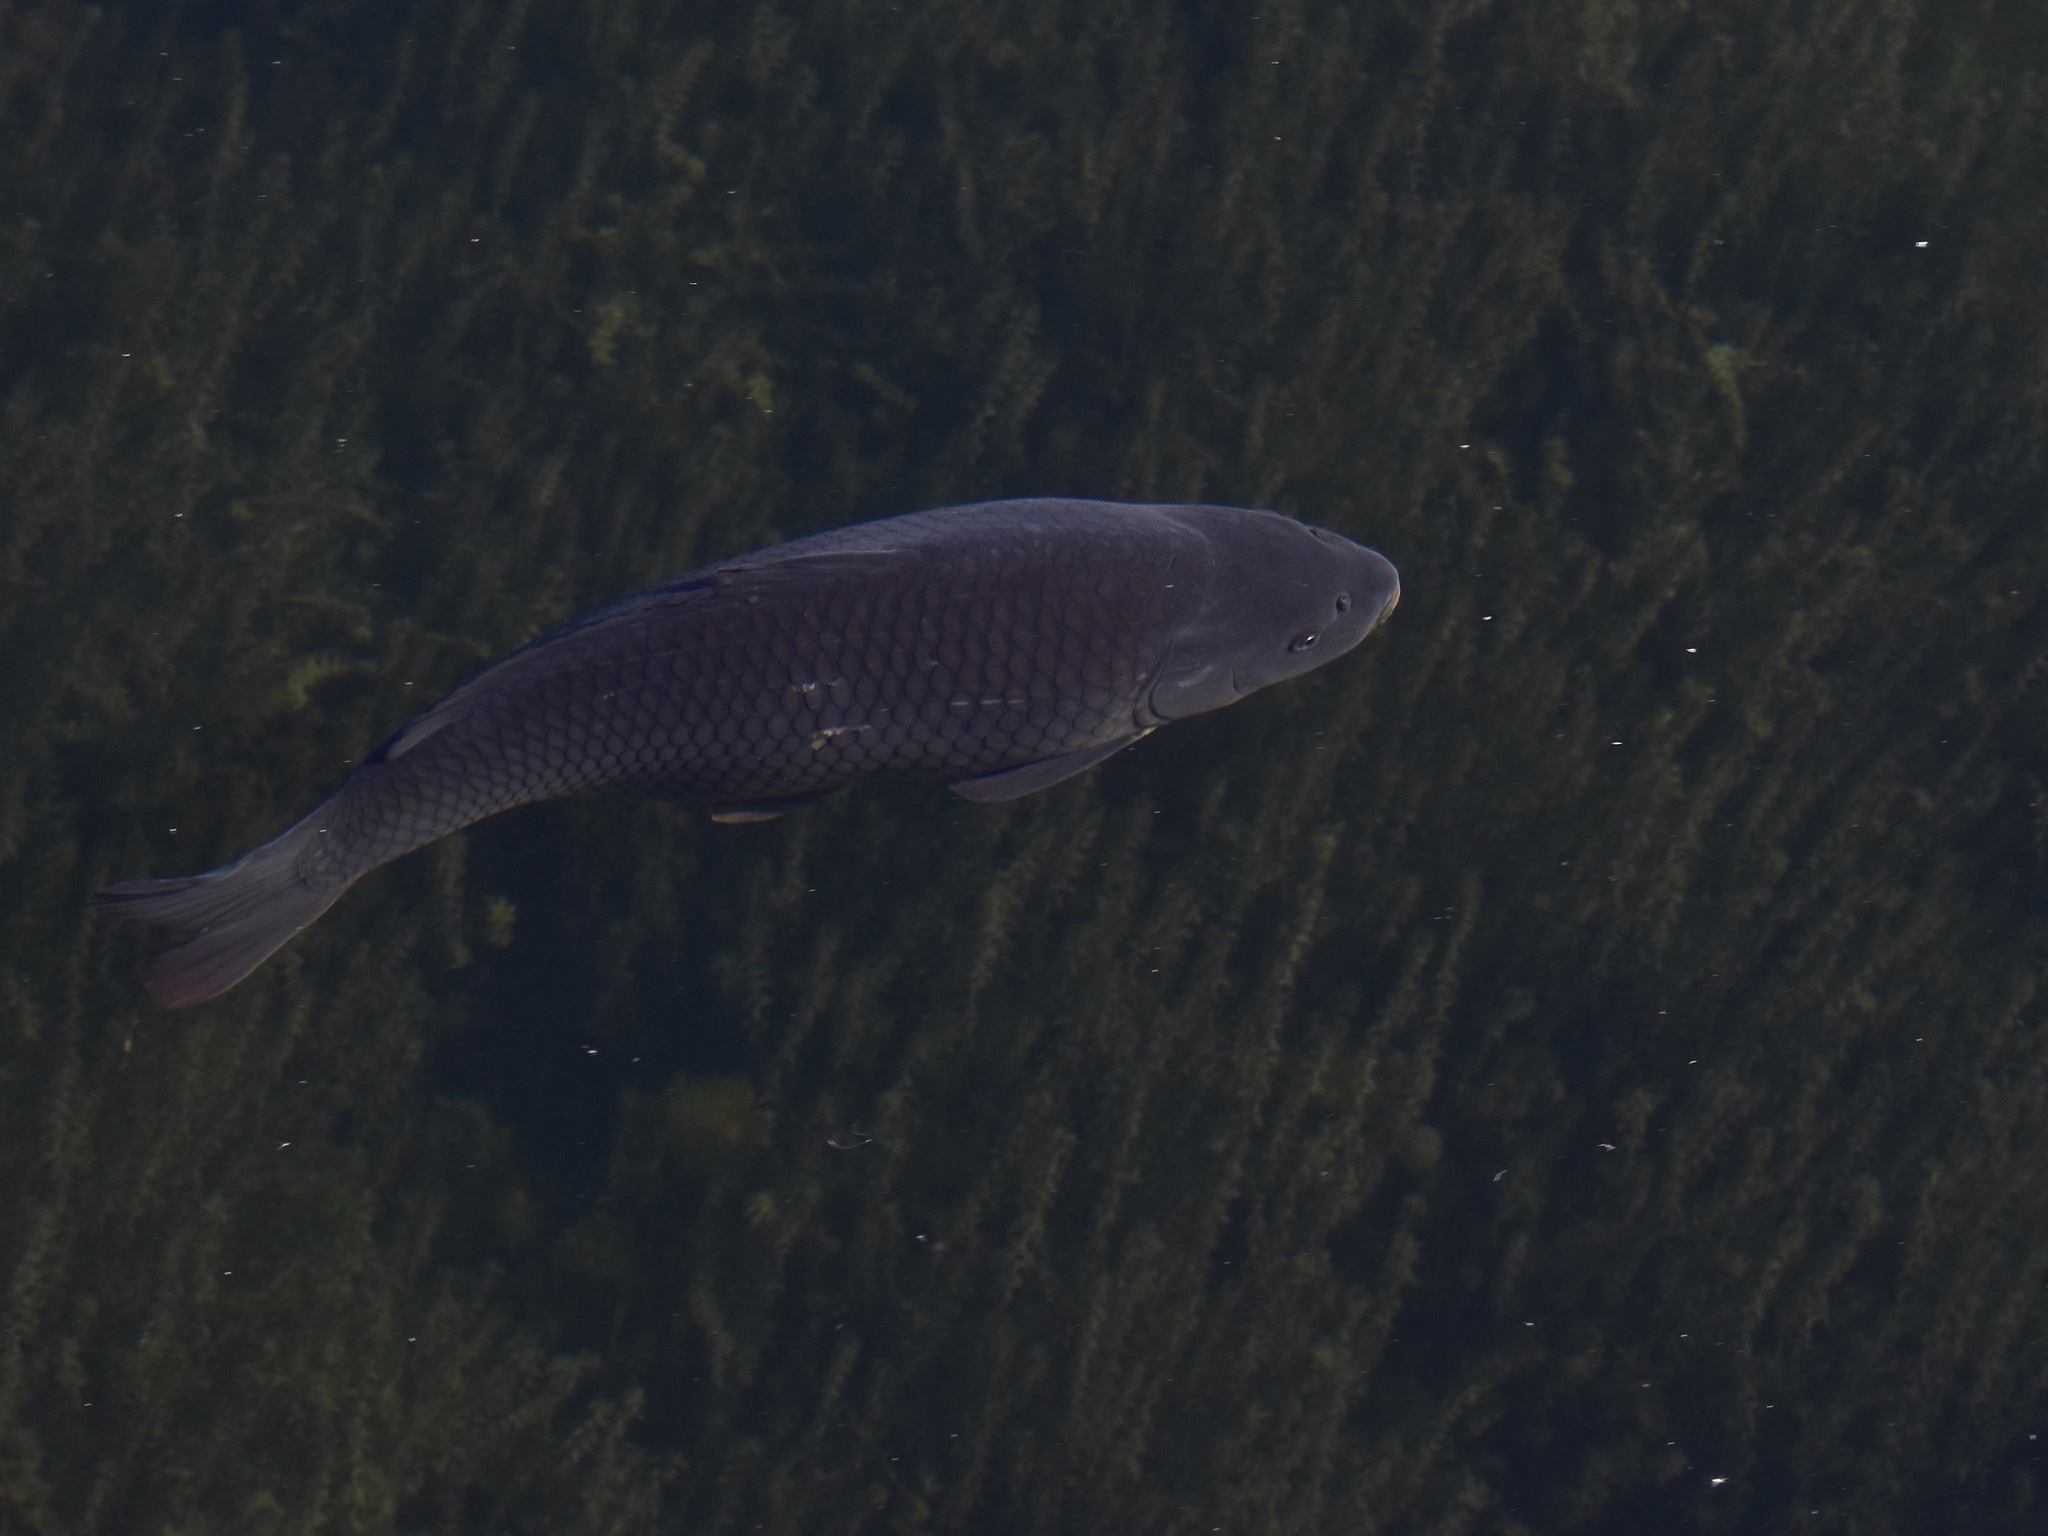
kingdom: Animalia
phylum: Chordata
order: Cypriniformes
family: Cyprinidae
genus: Cyprinus
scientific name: Cyprinus carpio
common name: Common carp
